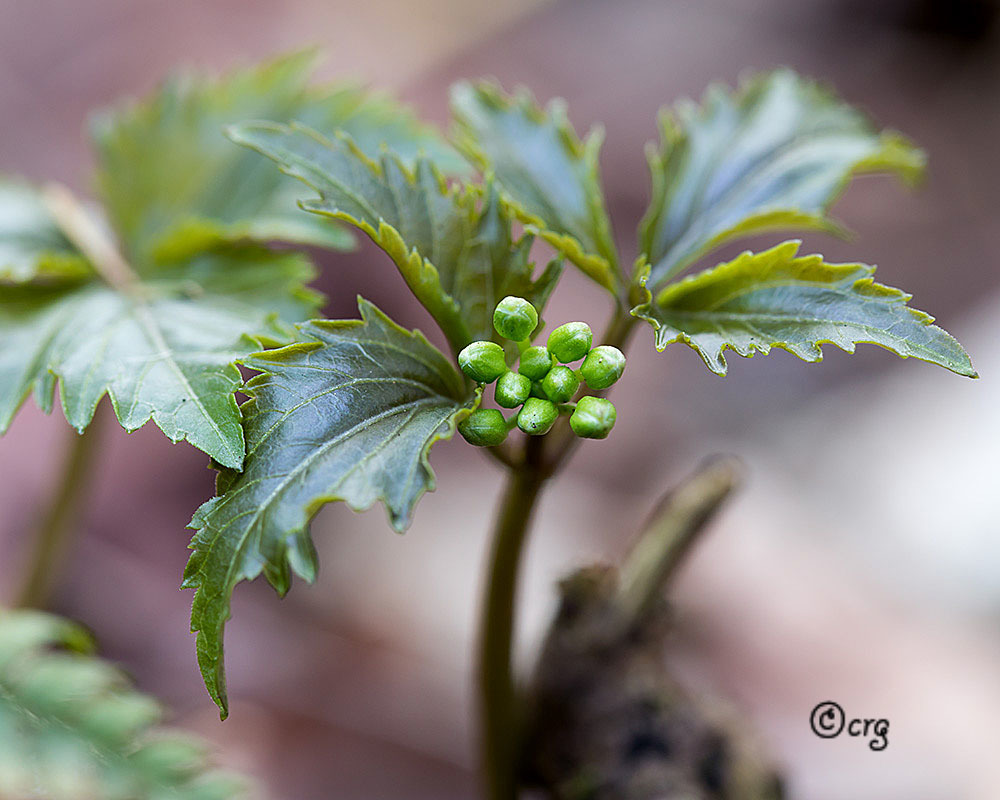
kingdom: Plantae
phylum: Tracheophyta
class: Magnoliopsida
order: Brassicales
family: Brassicaceae
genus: Cardamine
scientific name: Cardamine diphylla
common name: Broad-leaved toothwort
